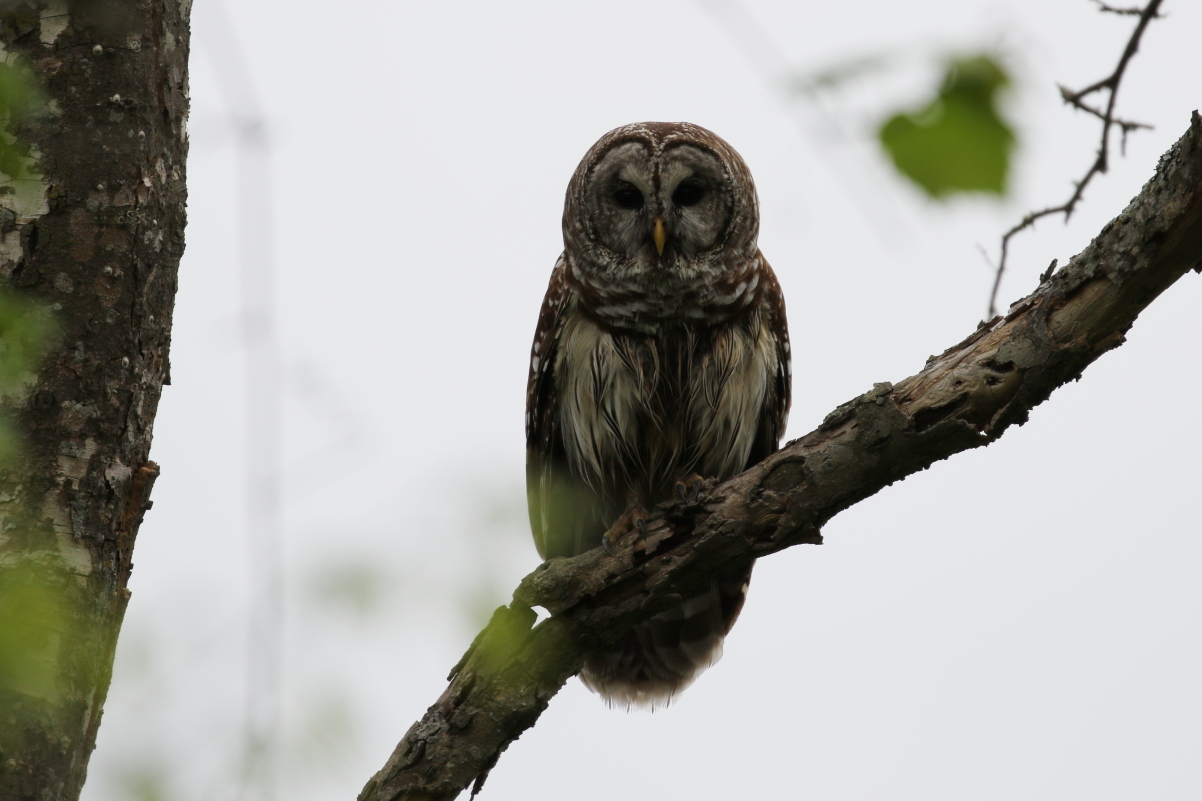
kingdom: Animalia
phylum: Chordata
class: Aves
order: Strigiformes
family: Strigidae
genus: Strix
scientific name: Strix varia
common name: Barred owl
